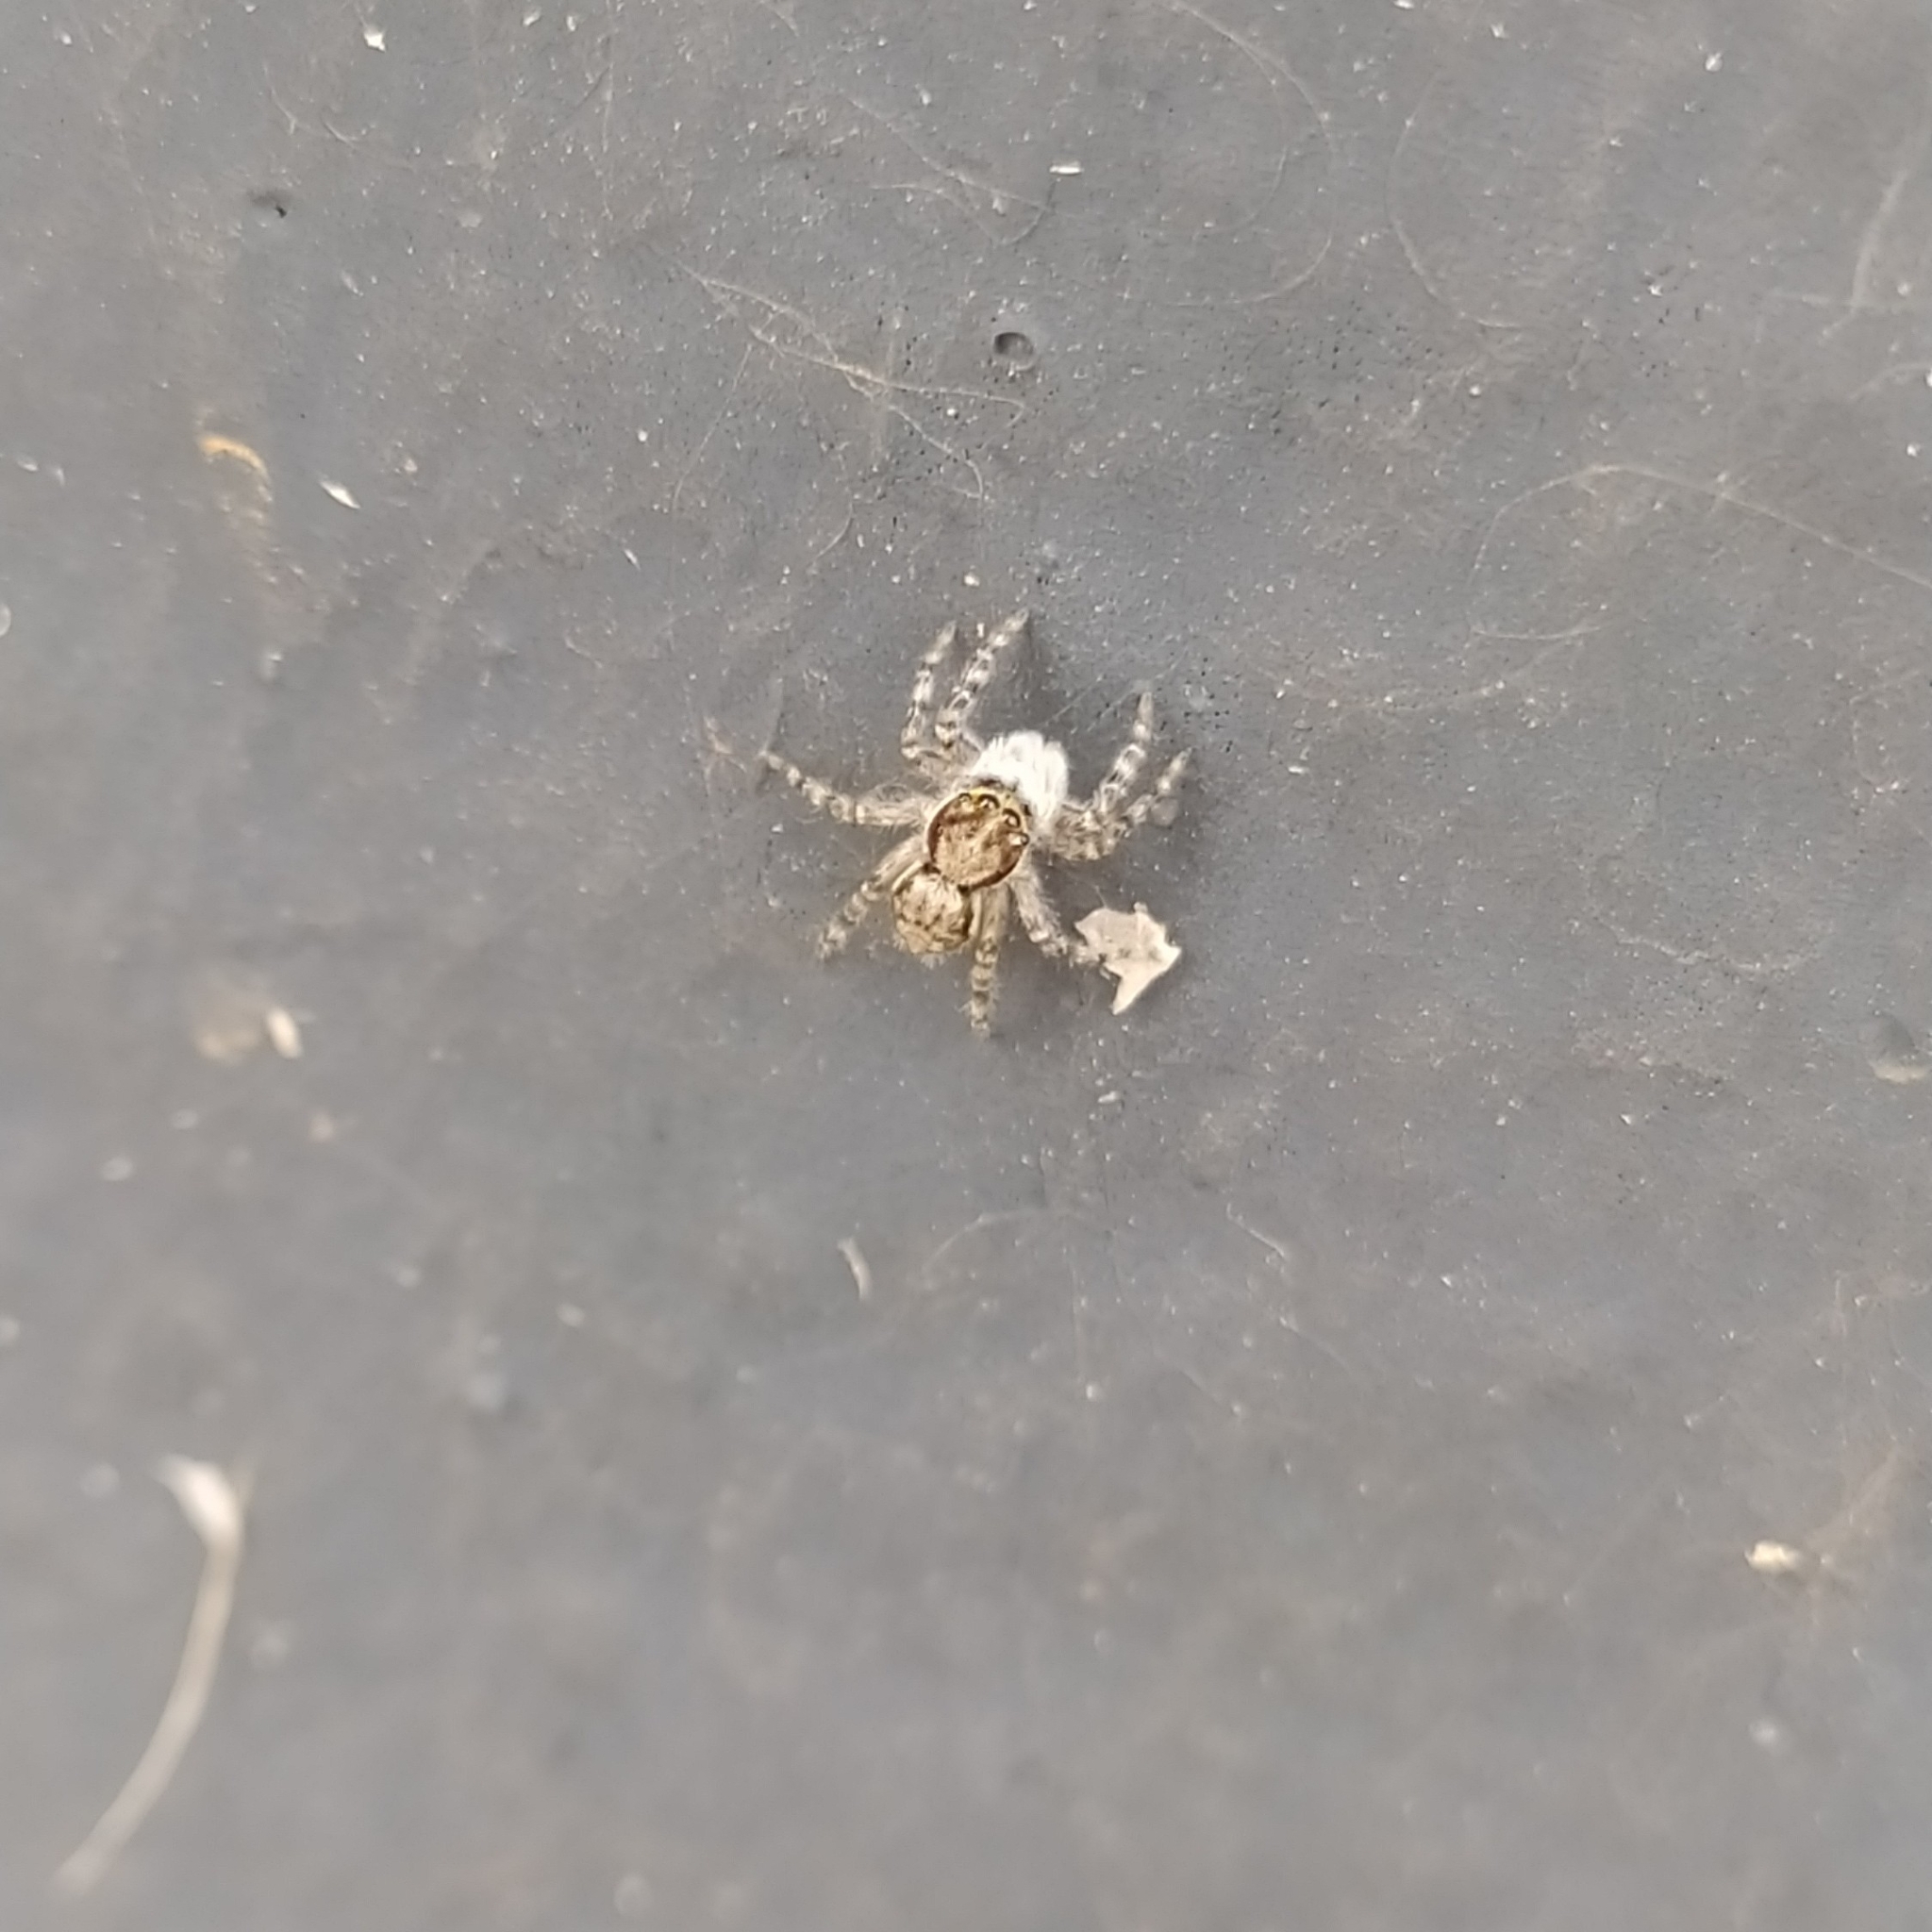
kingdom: Animalia
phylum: Arthropoda
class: Arachnida
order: Araneae
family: Salticidae
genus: Menemerus
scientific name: Menemerus bivittatus
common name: Gray wall jumper
